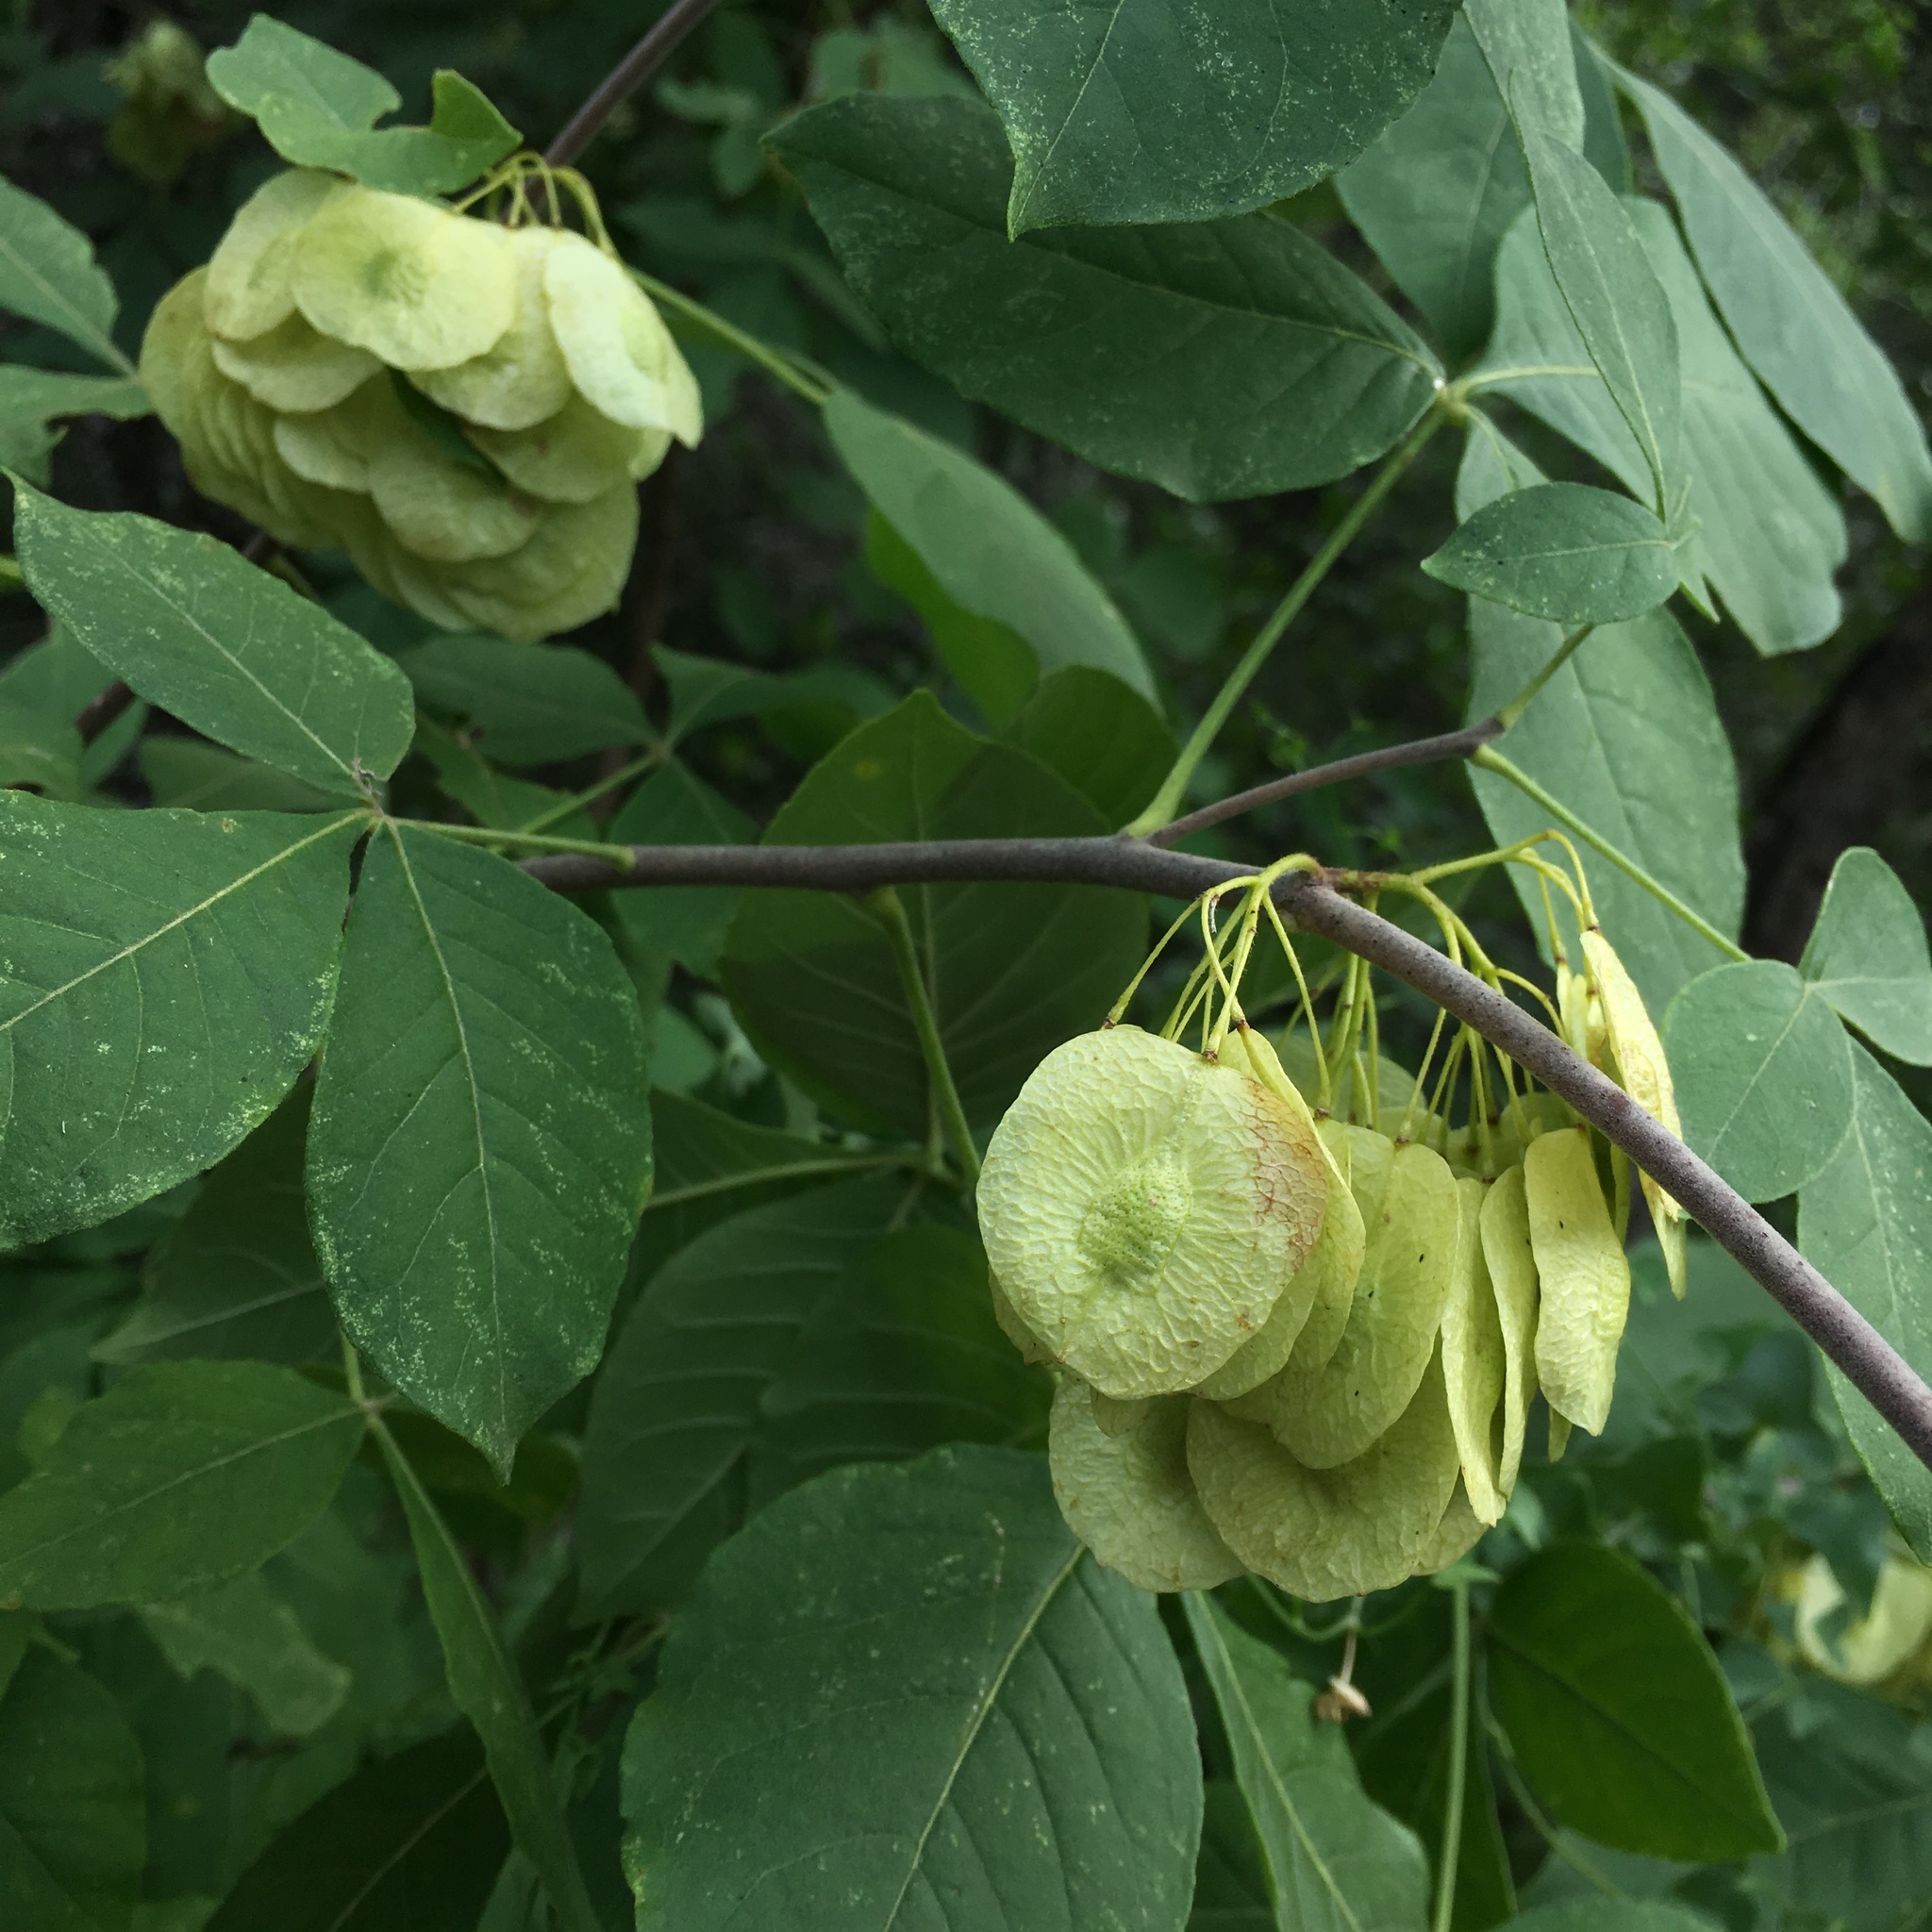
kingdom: Plantae
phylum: Tracheophyta
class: Magnoliopsida
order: Sapindales
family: Rutaceae
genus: Ptelea
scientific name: Ptelea trifoliata
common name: Common hop-tree
